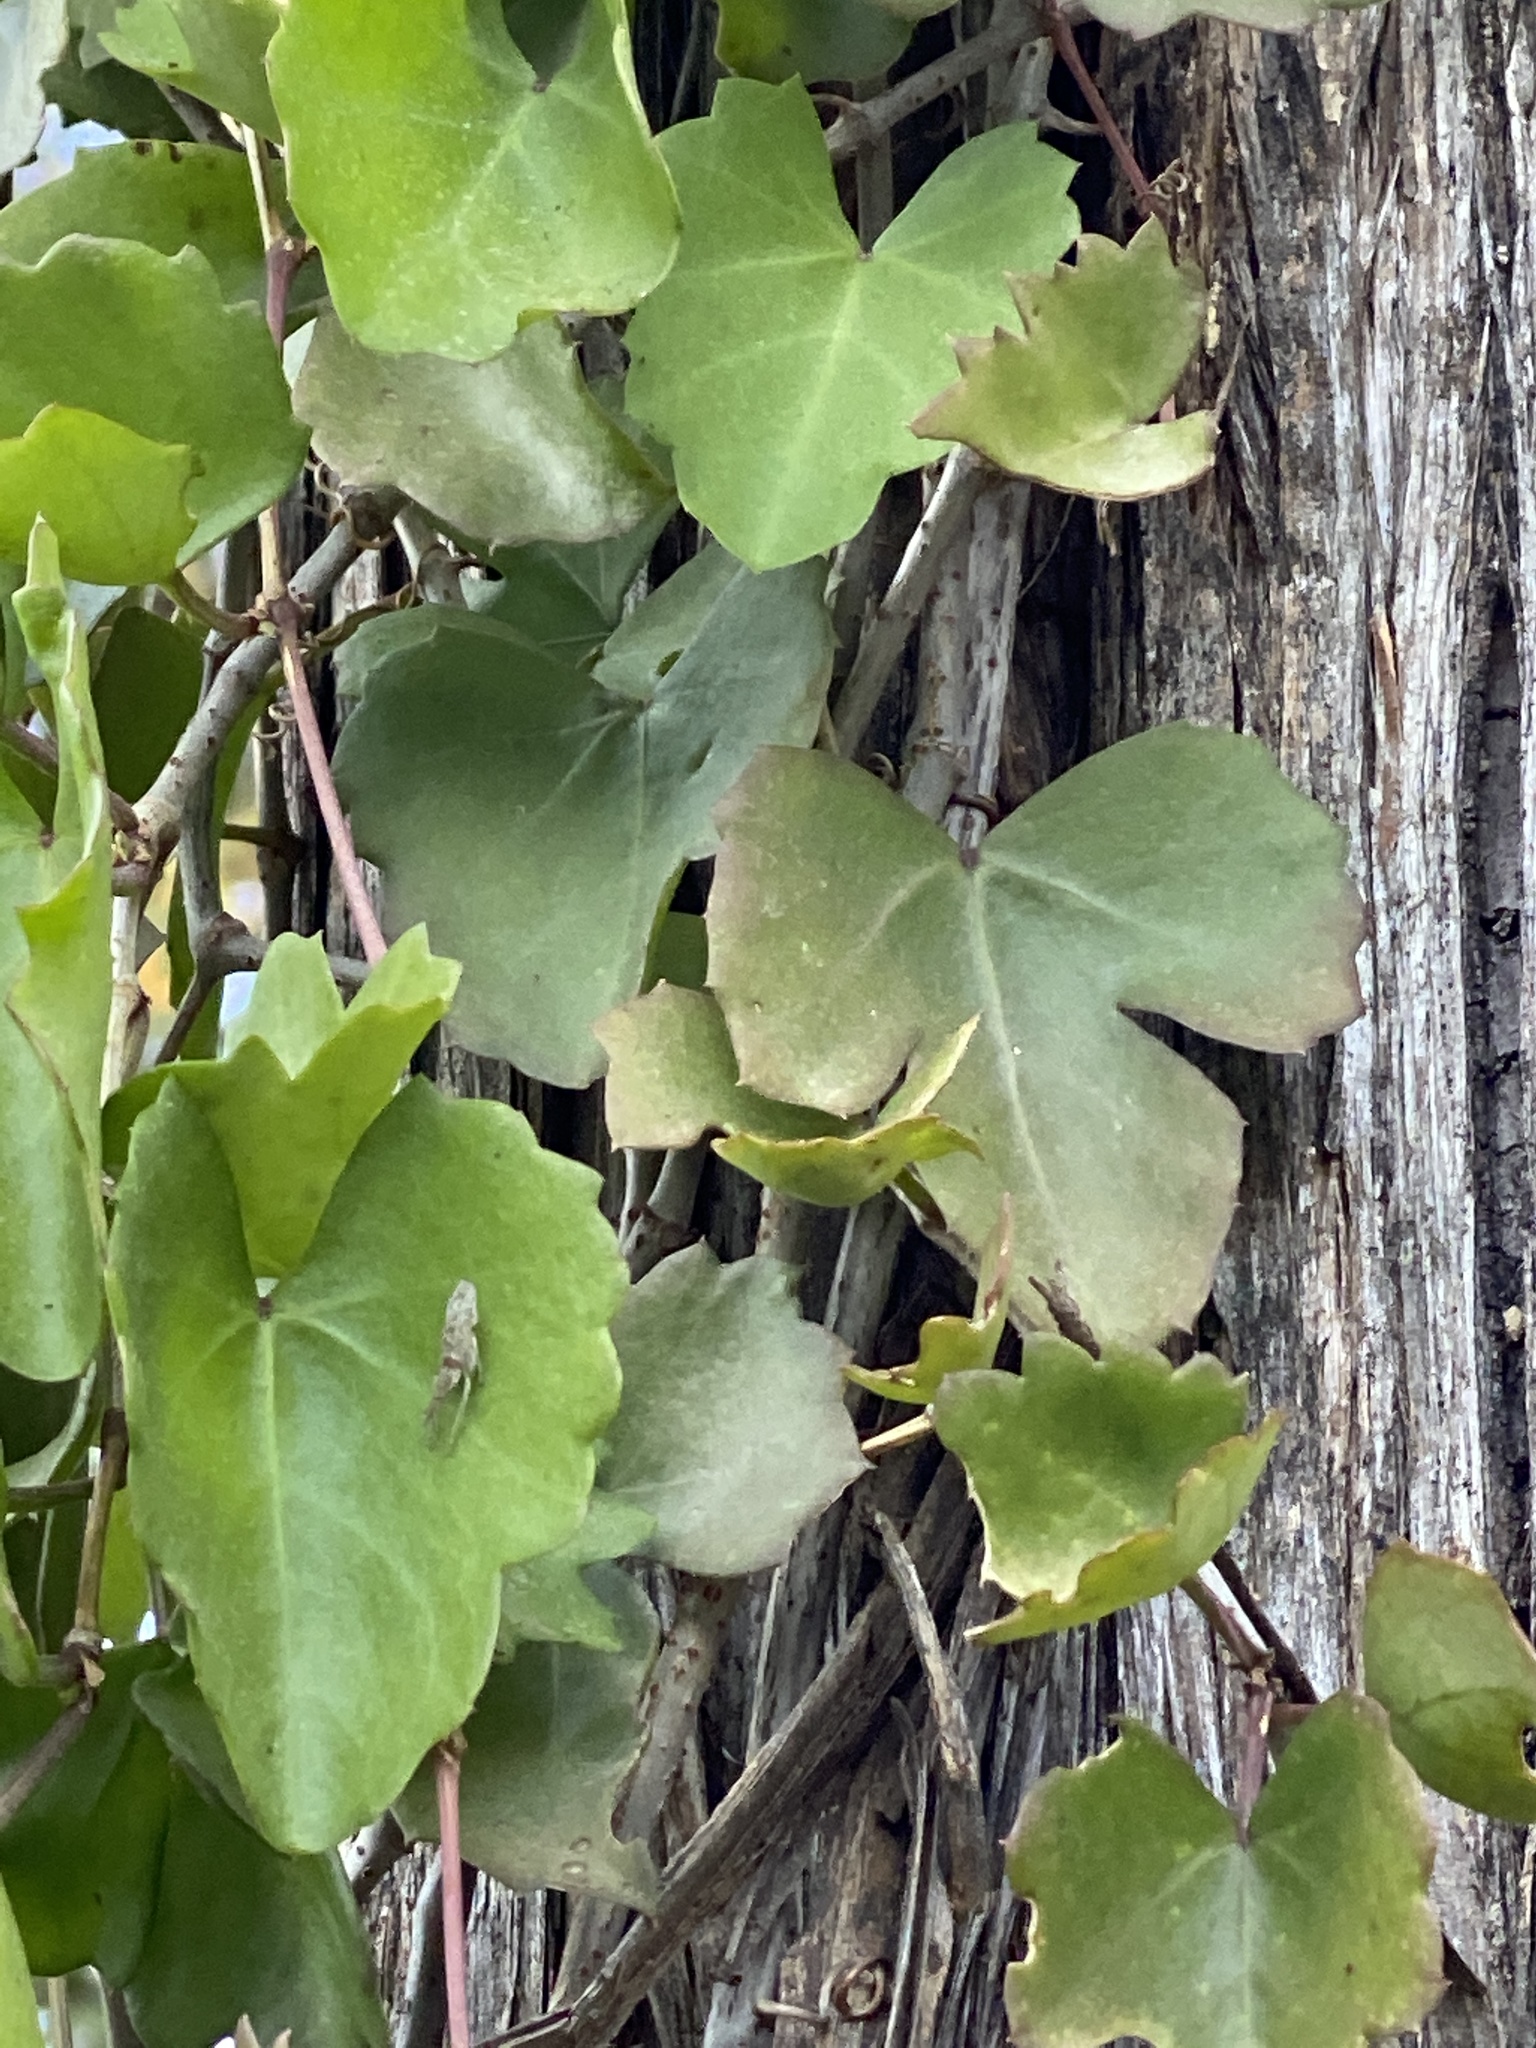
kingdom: Plantae
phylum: Tracheophyta
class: Magnoliopsida
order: Vitales
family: Vitaceae
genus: Cissus
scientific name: Cissus trifoliata
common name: Vine-sorrel
